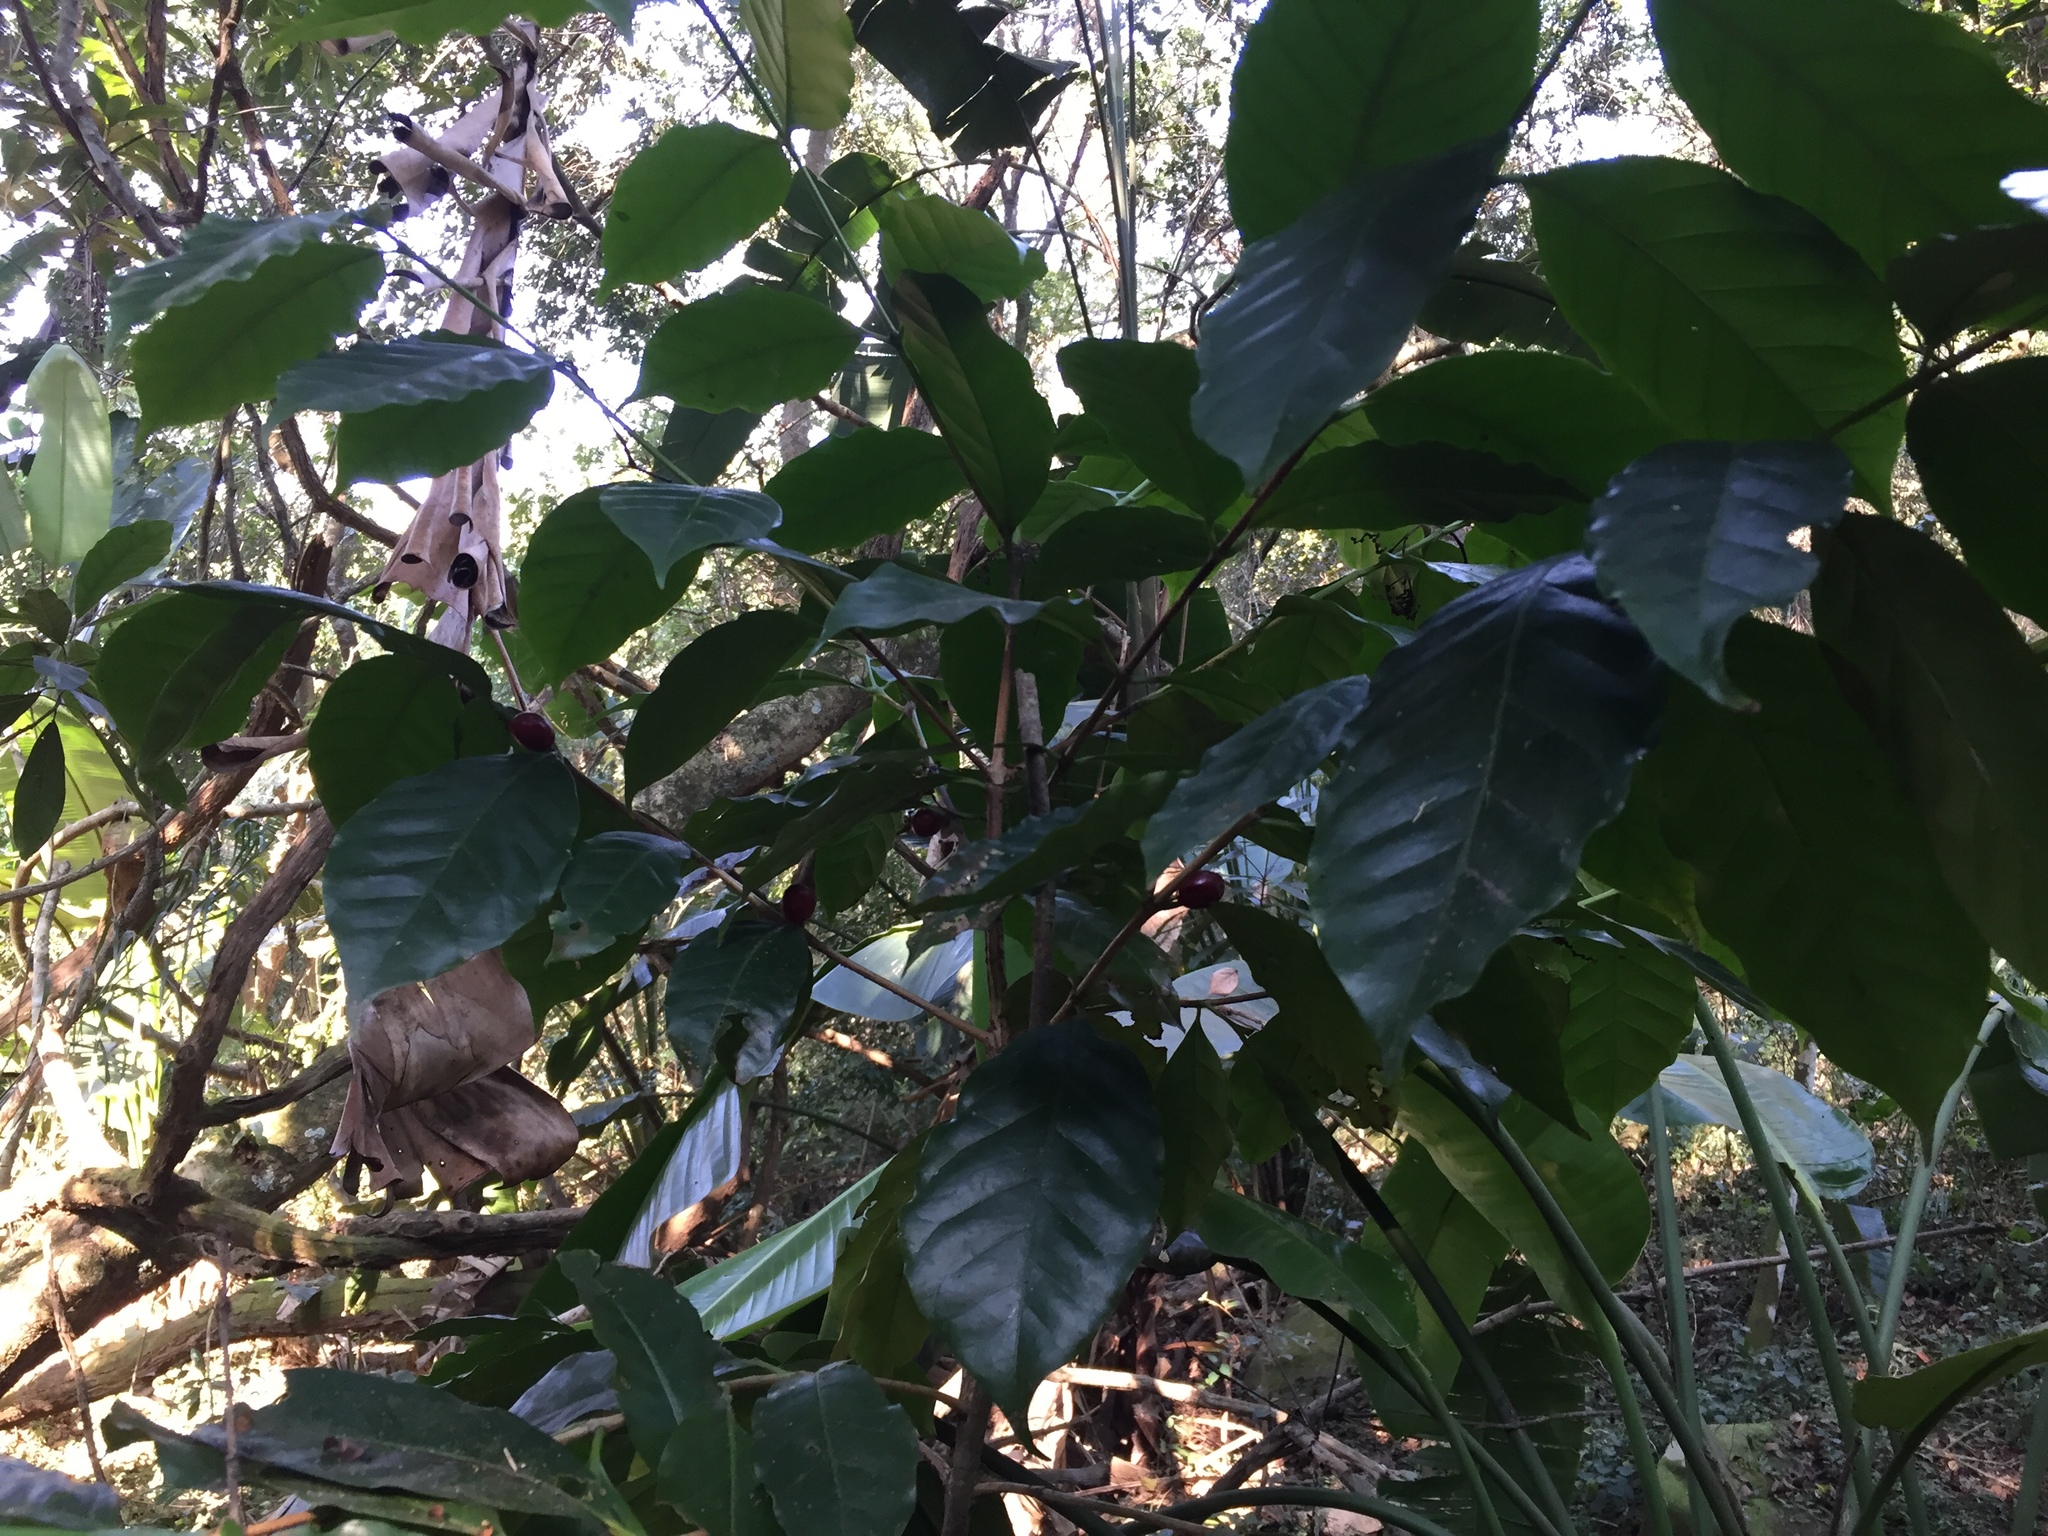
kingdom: Plantae
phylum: Tracheophyta
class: Magnoliopsida
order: Lamiales
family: Oleaceae
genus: Noronhia
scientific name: Noronhia foveolata
